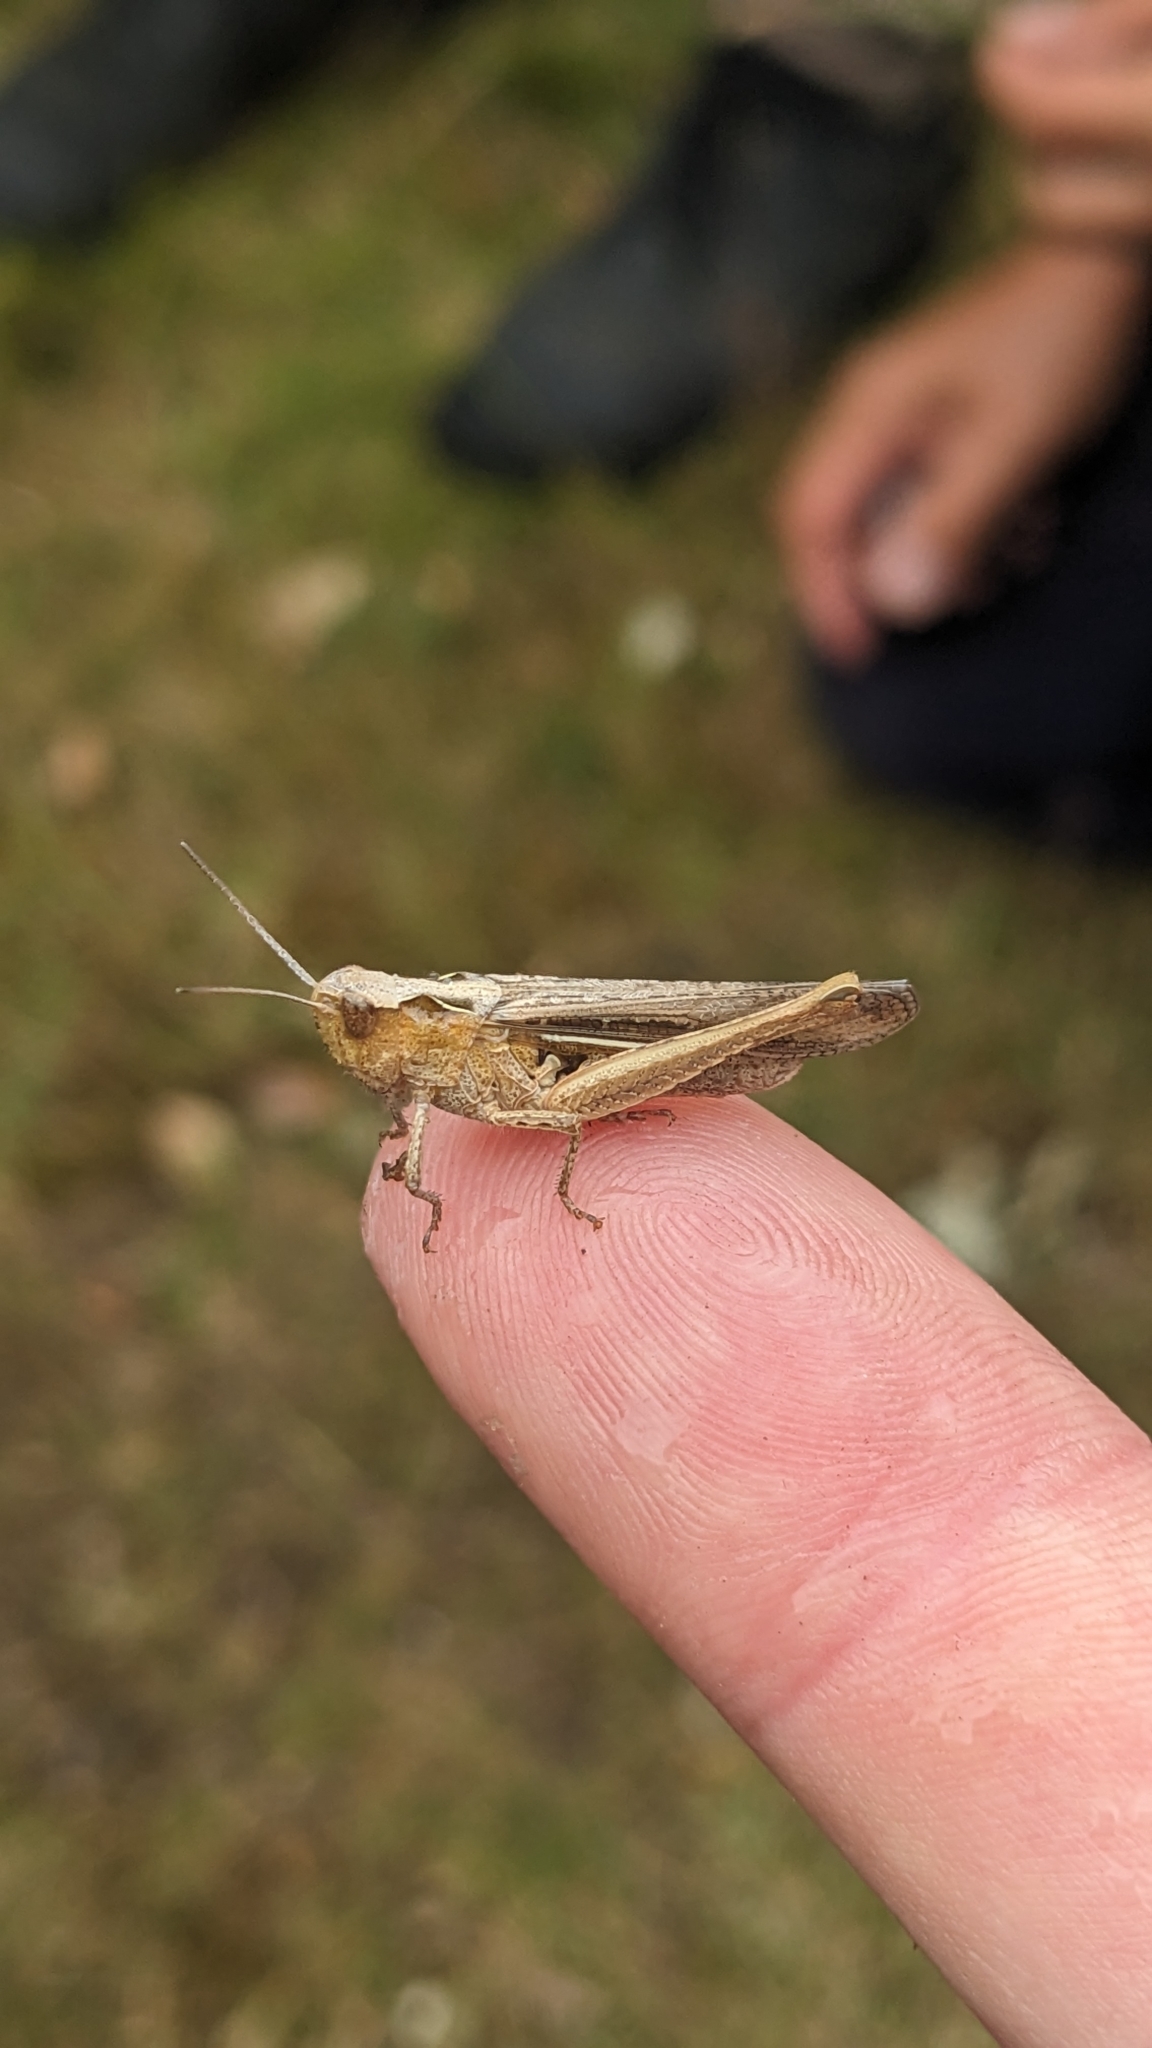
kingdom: Animalia
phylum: Arthropoda
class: Insecta
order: Orthoptera
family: Acrididae
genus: Chorthippus
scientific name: Chorthippus brunneus
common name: Field grasshopper
